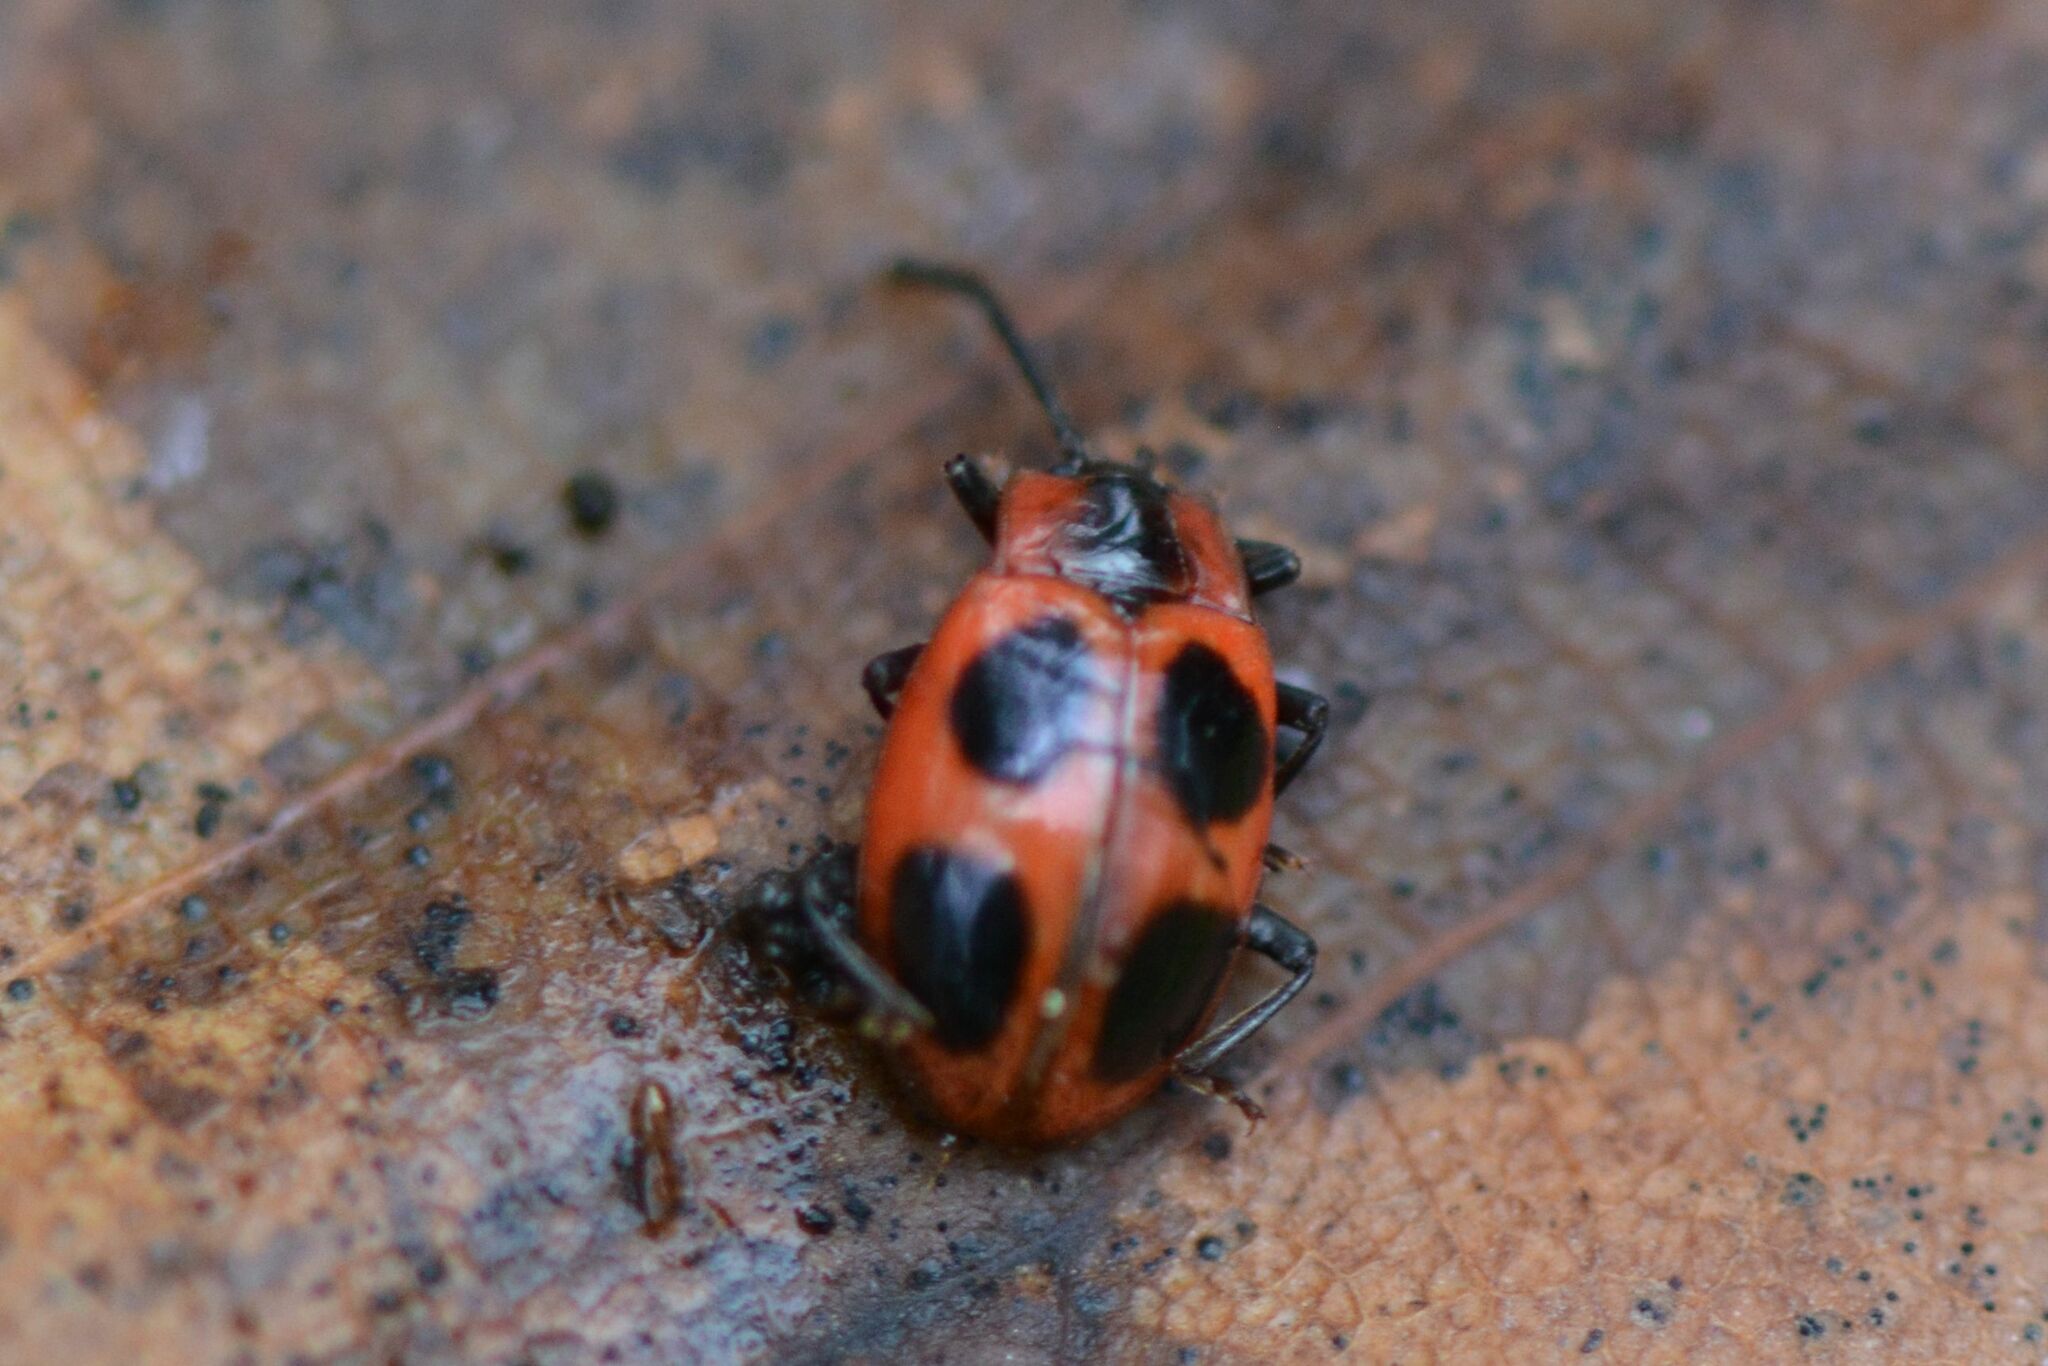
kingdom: Animalia
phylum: Arthropoda
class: Insecta
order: Coleoptera
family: Endomychidae
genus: Endomychus
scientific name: Endomychus coccineus
